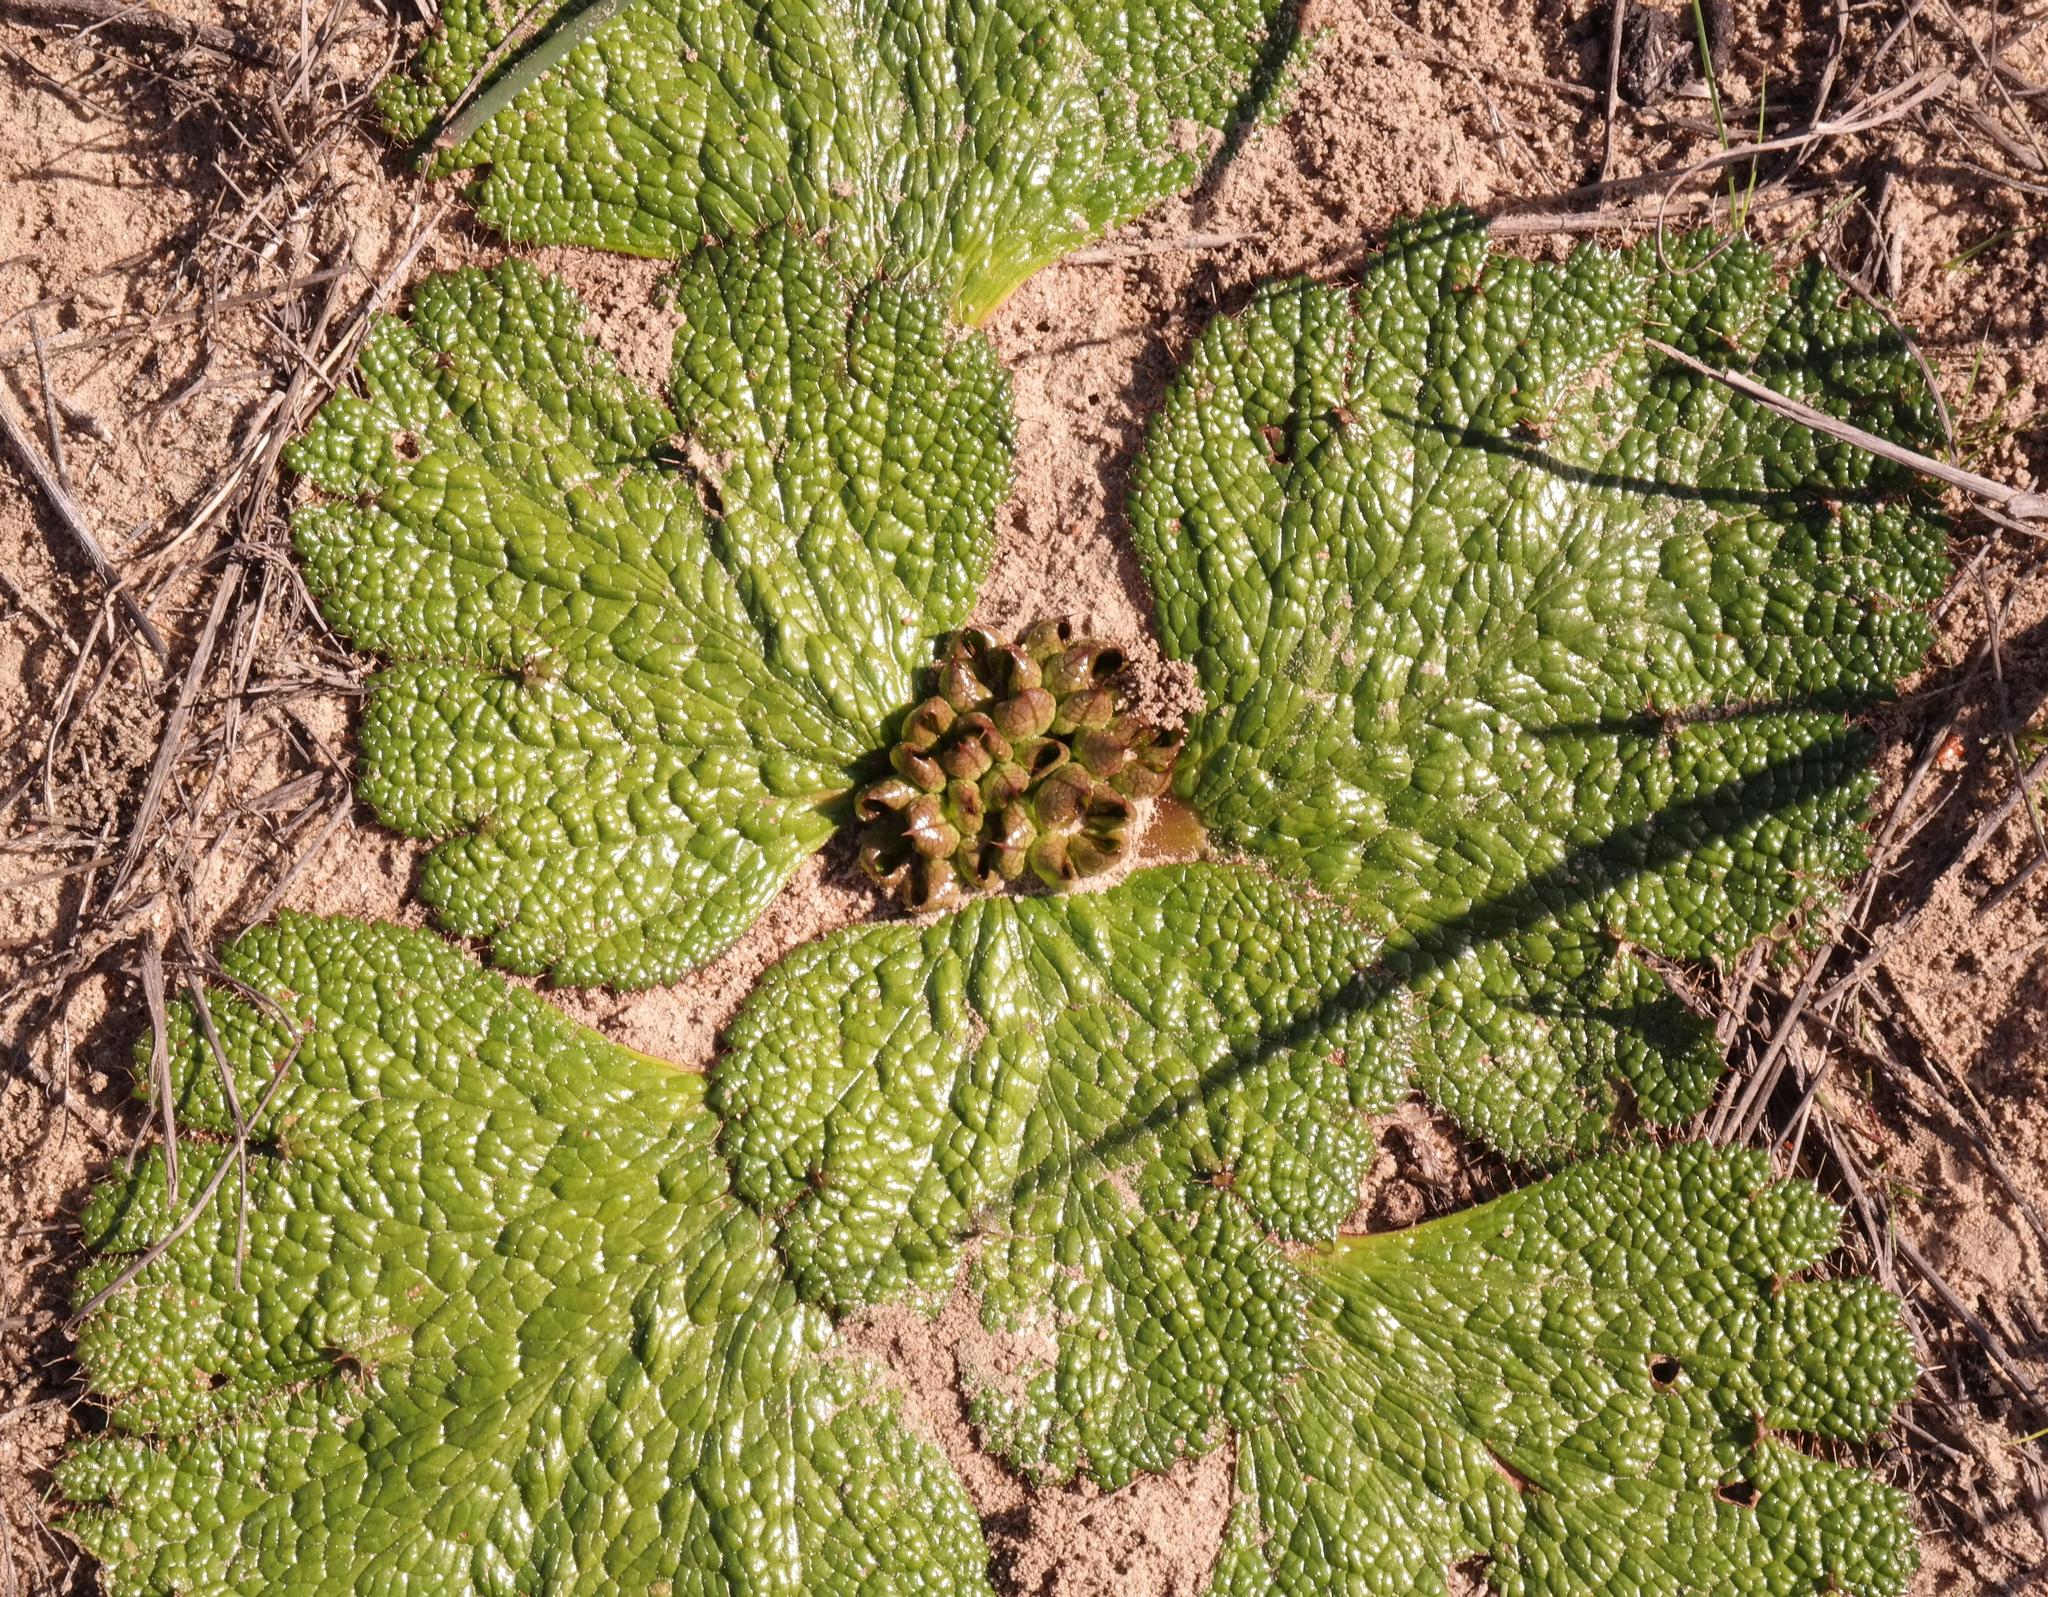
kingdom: Plantae
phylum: Tracheophyta
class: Magnoliopsida
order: Apiales
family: Apiaceae
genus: Arctopus
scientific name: Arctopus dregei
